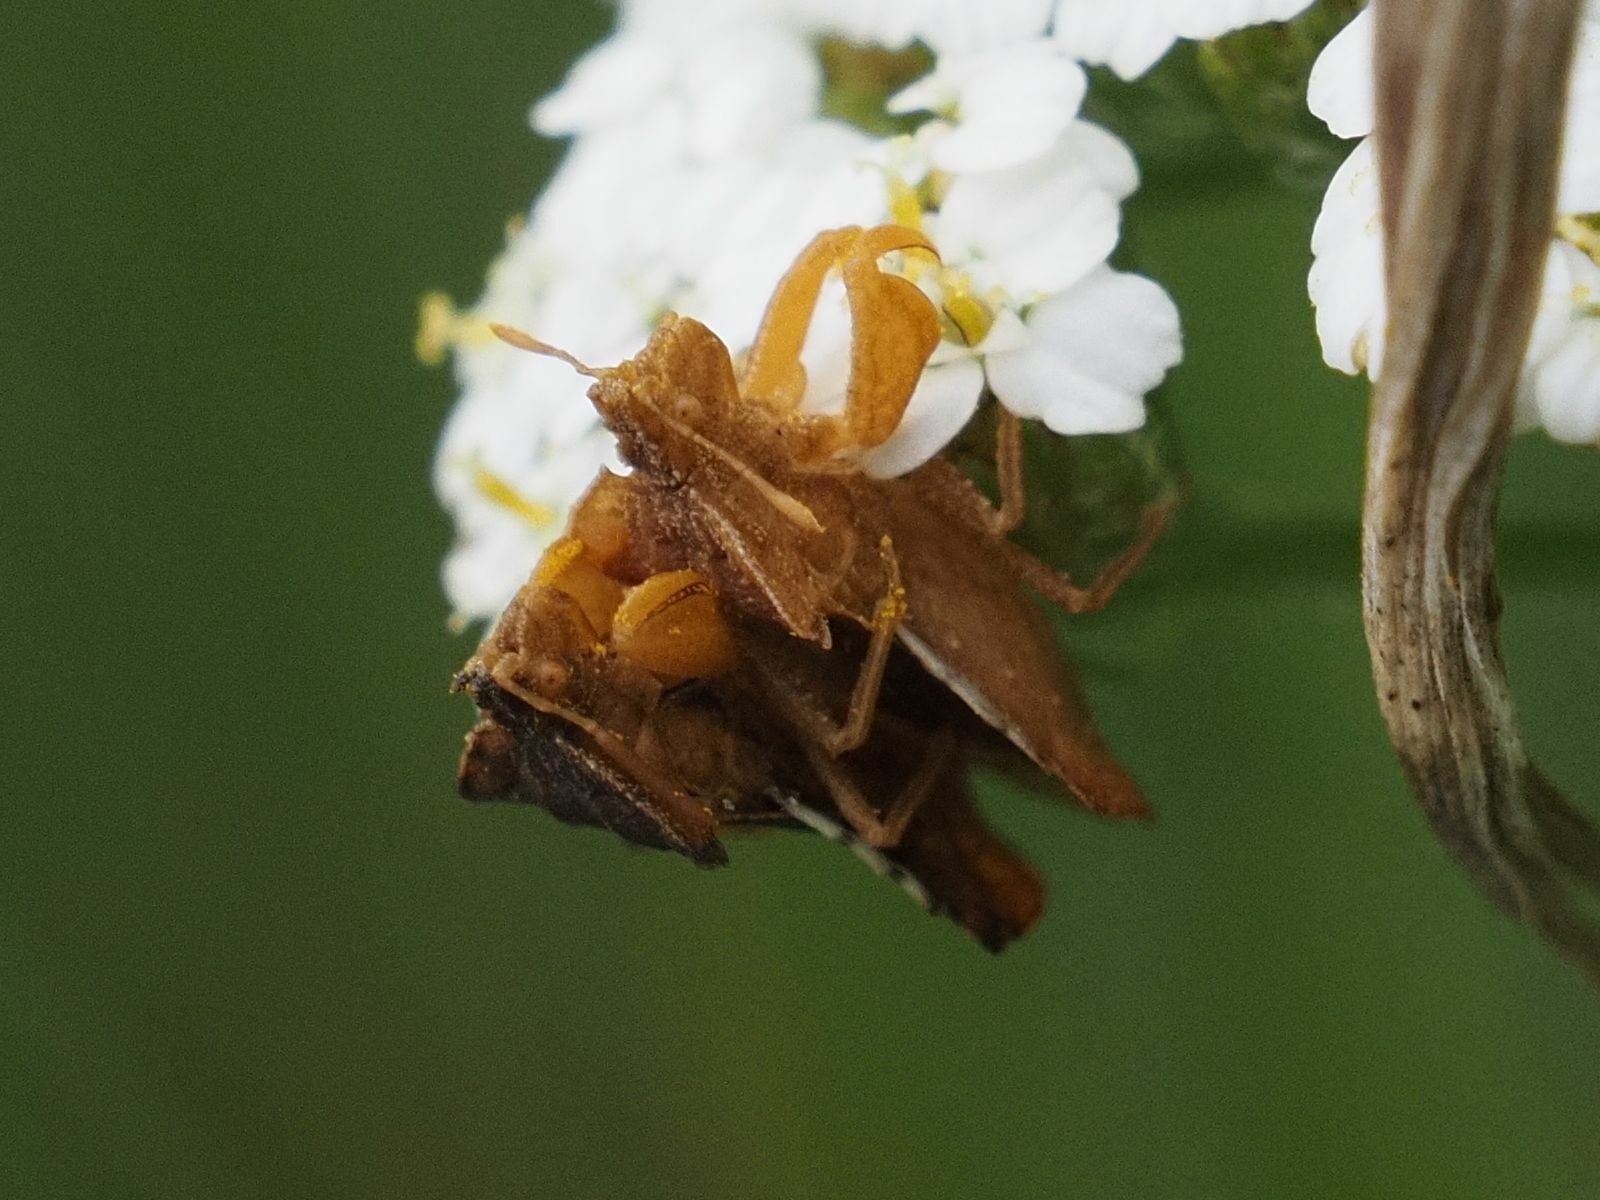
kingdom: Animalia
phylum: Arthropoda
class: Insecta
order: Hemiptera
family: Reduviidae
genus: Phymata
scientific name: Phymata crassipes
